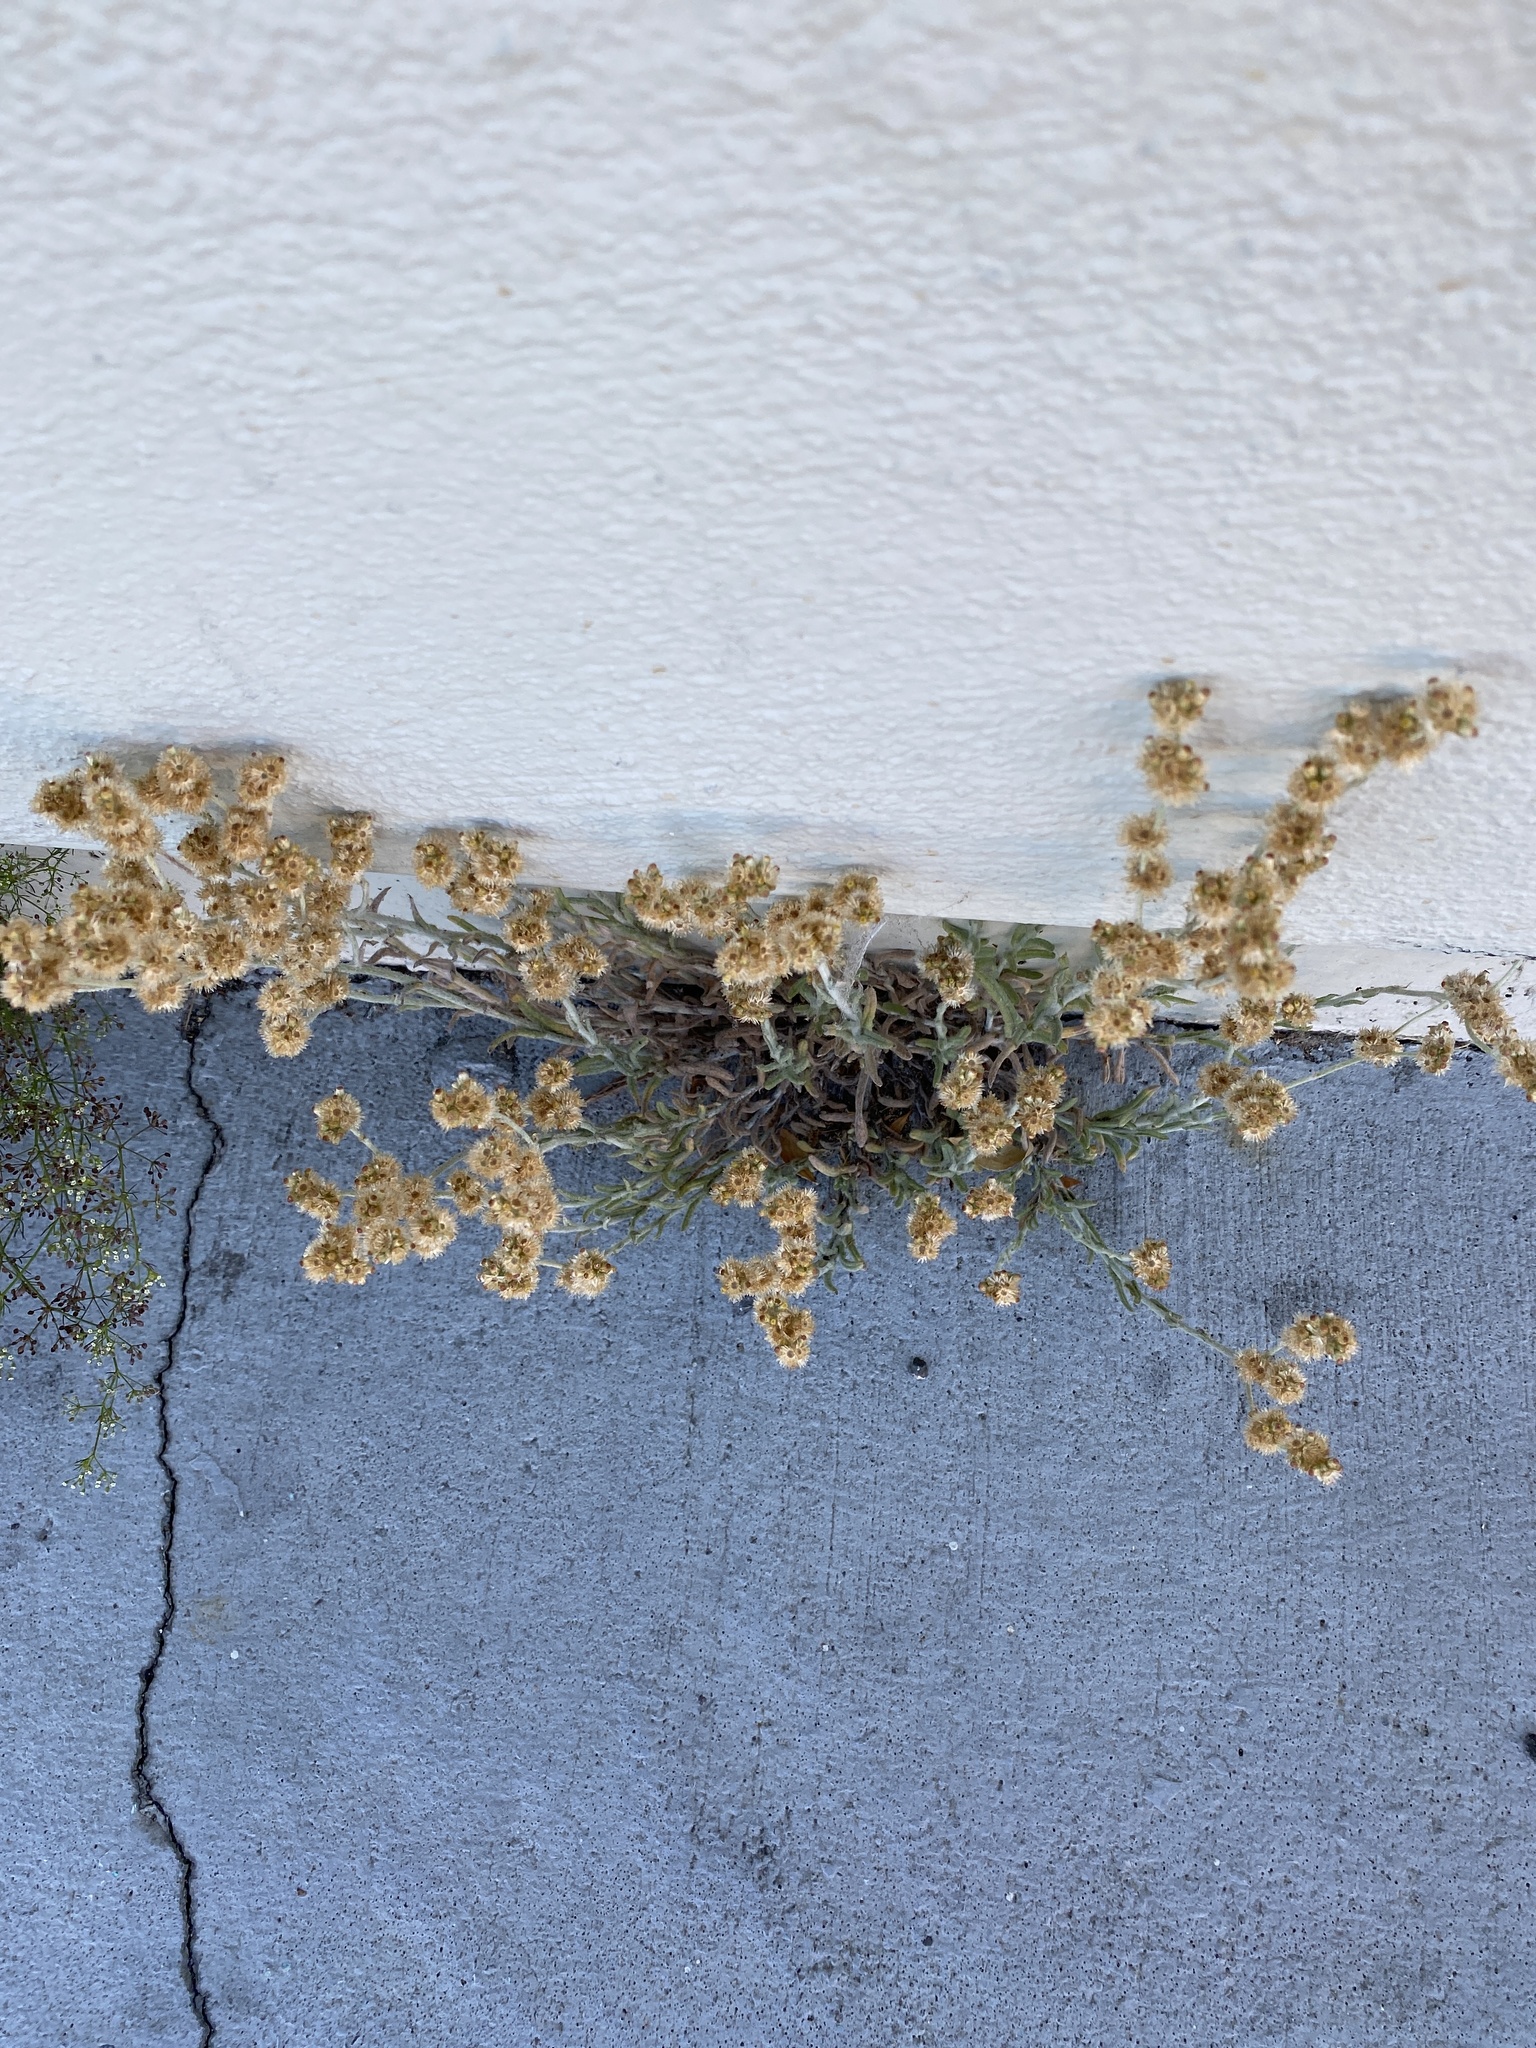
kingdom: Plantae
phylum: Tracheophyta
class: Magnoliopsida
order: Asterales
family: Asteraceae
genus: Helichrysum
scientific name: Helichrysum luteoalbum
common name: Daisy
